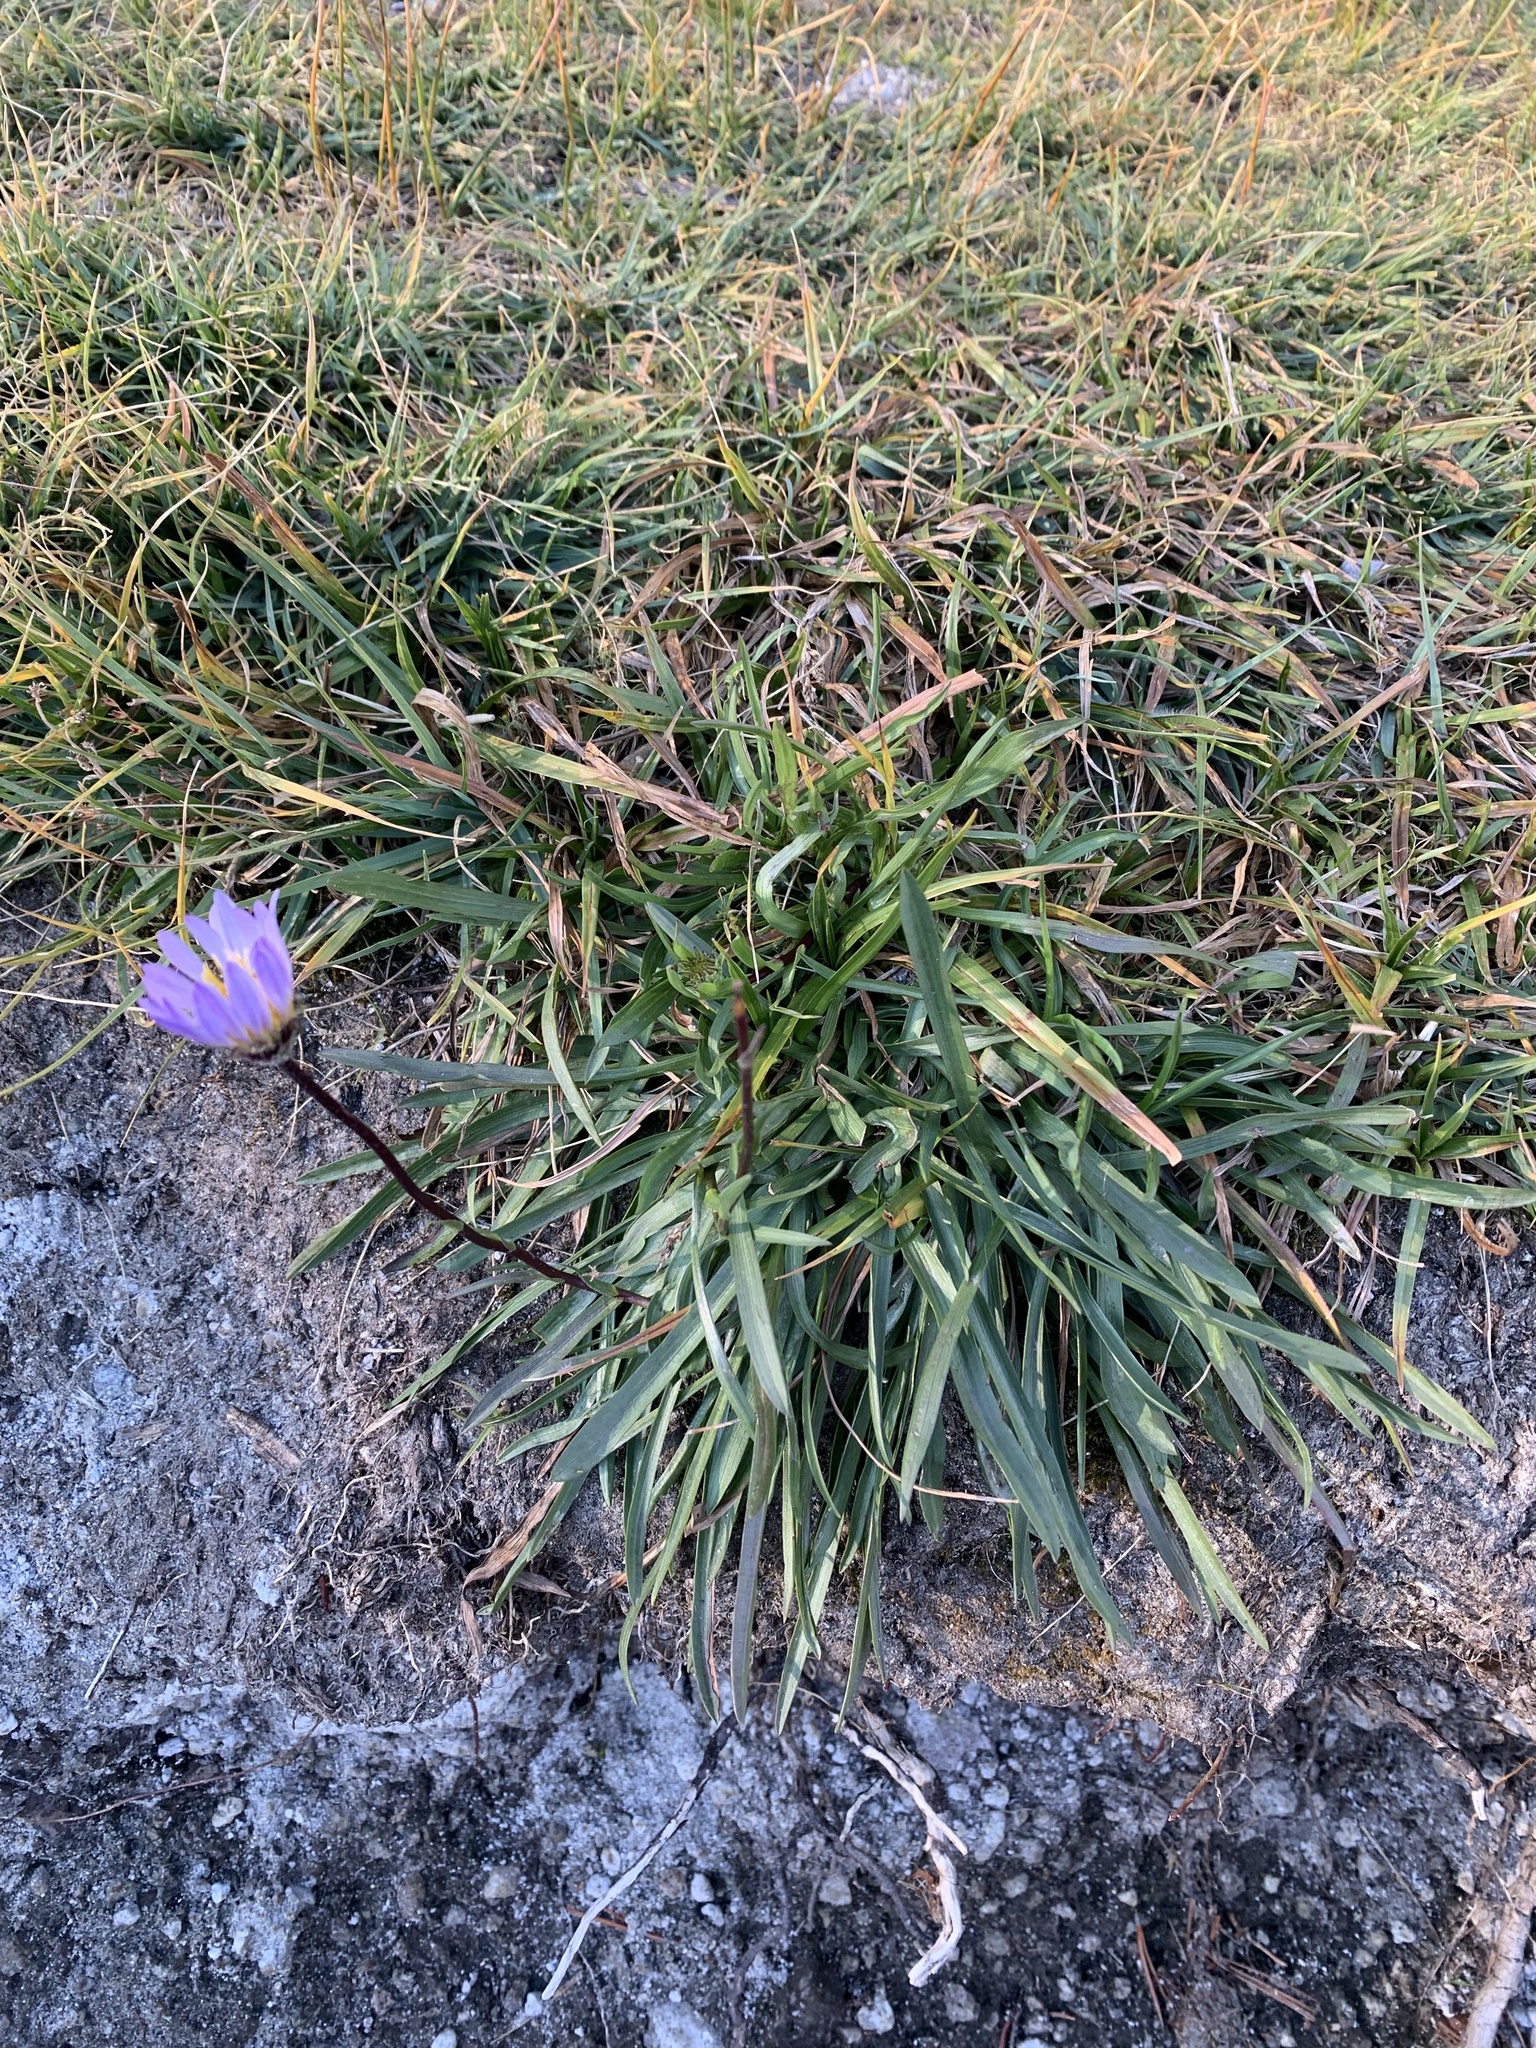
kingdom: Plantae
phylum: Tracheophyta
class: Magnoliopsida
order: Asterales
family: Asteraceae
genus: Oreostemma
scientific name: Oreostemma alpigenum
